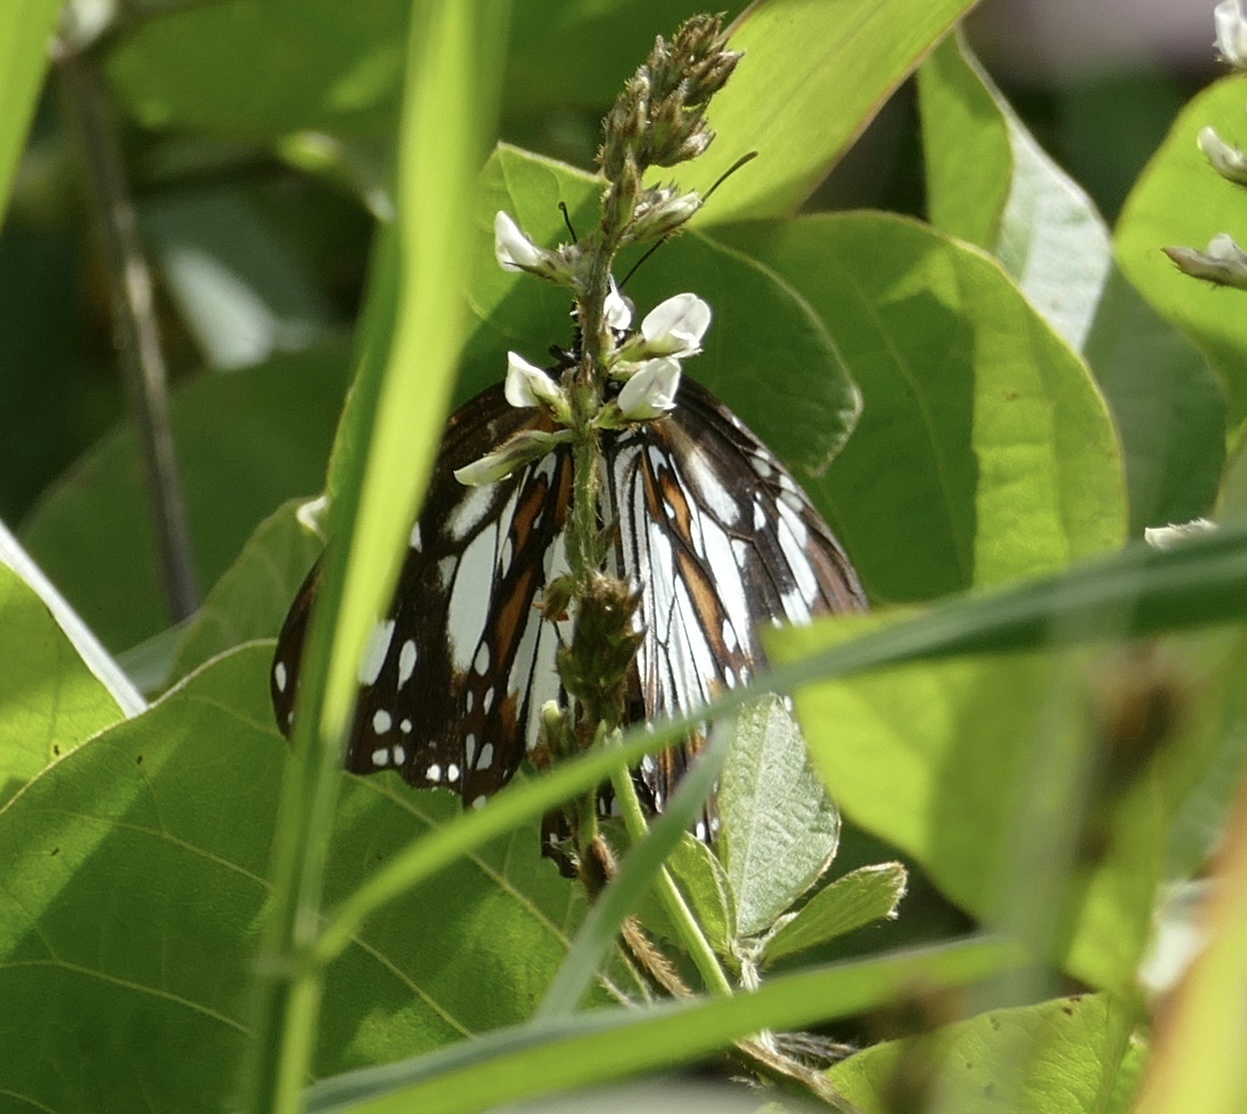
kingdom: Animalia
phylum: Arthropoda
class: Insecta
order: Lepidoptera
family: Nymphalidae
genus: Danaus
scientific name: Danaus affinis
